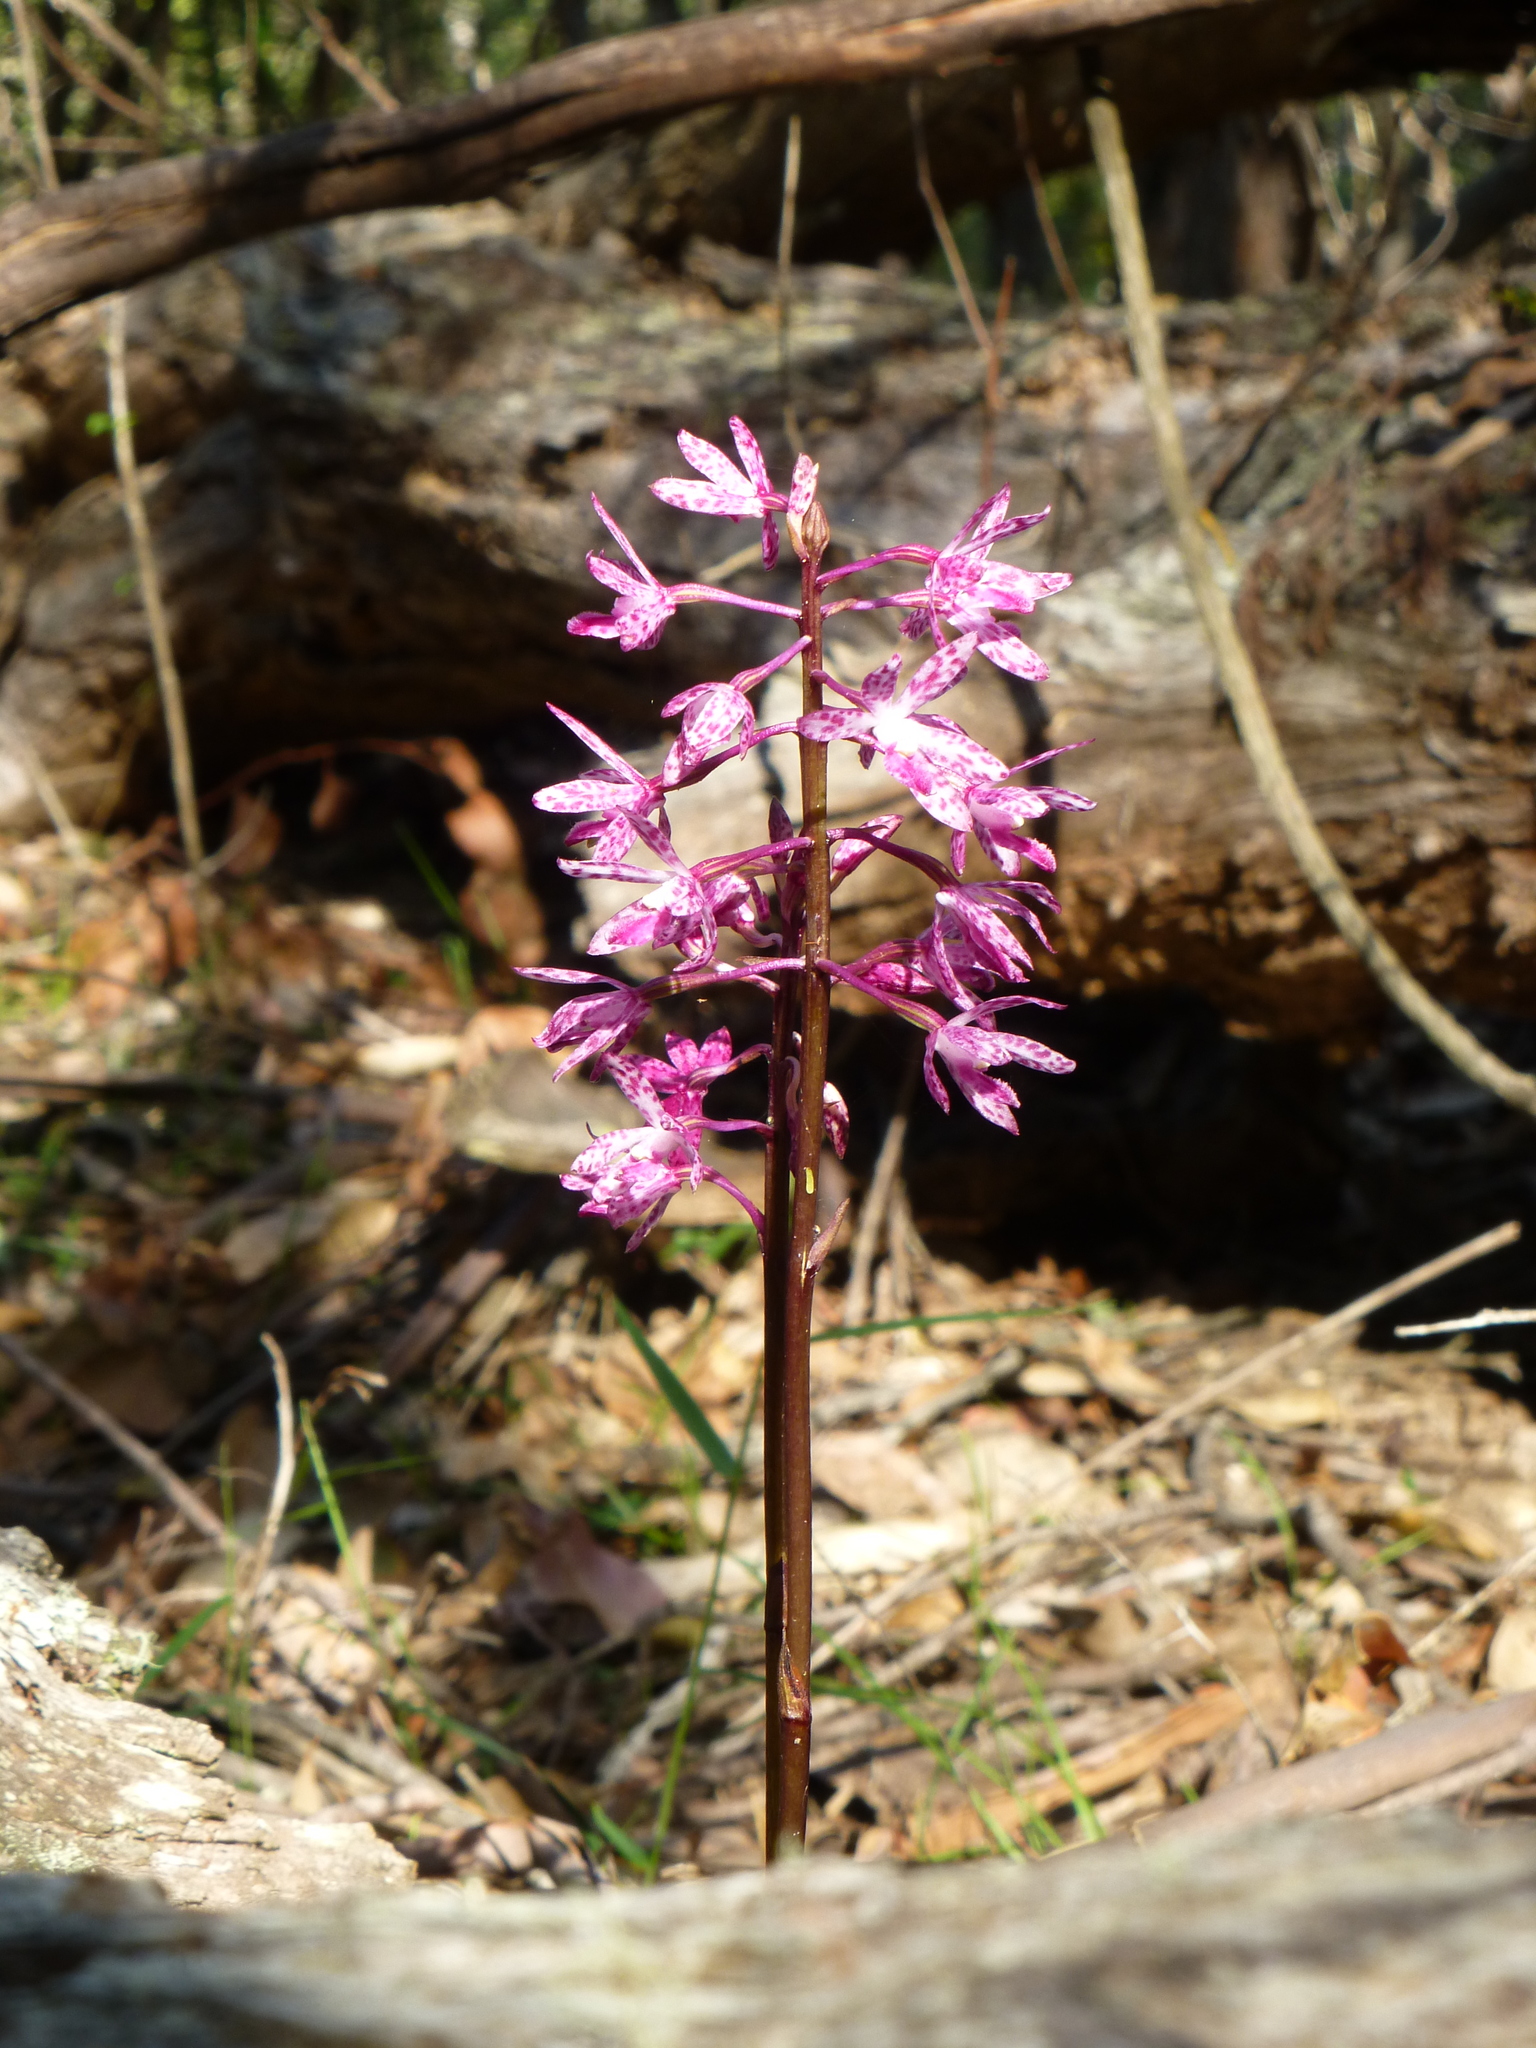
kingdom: Plantae
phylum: Tracheophyta
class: Liliopsida
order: Asparagales
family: Orchidaceae
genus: Dipodium
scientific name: Dipodium squamatum
